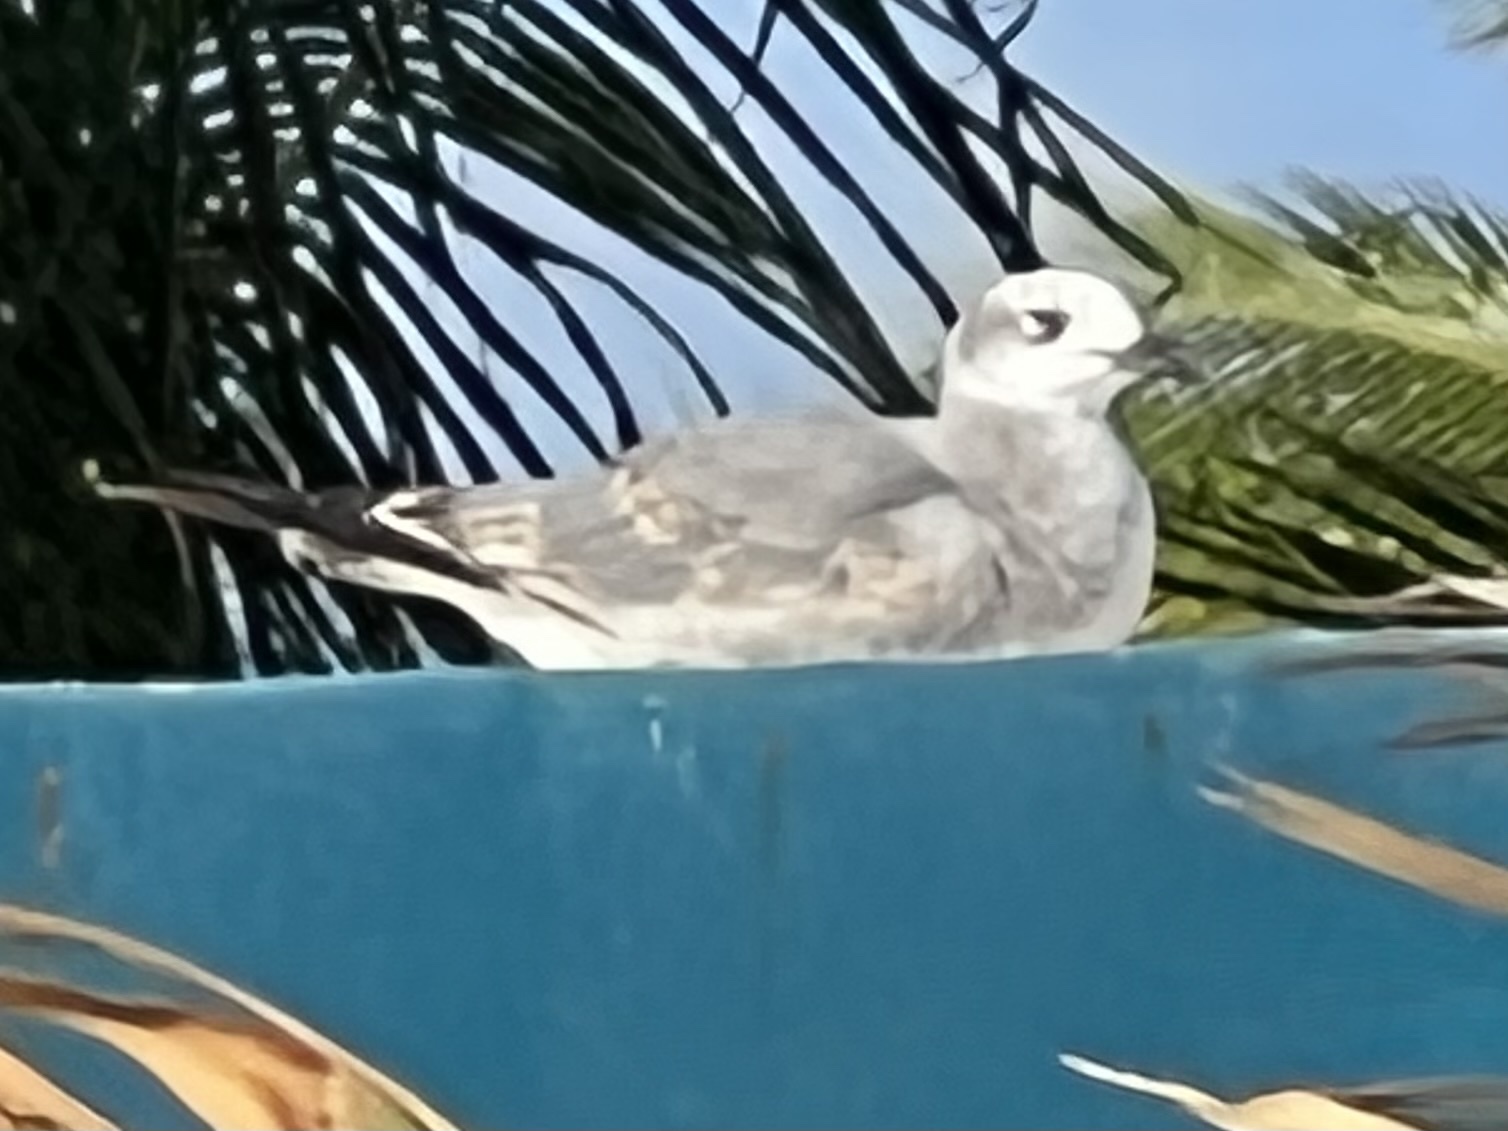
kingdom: Animalia
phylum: Chordata
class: Aves
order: Charadriiformes
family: Laridae
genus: Leucophaeus
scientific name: Leucophaeus atricilla
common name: Laughing gull
